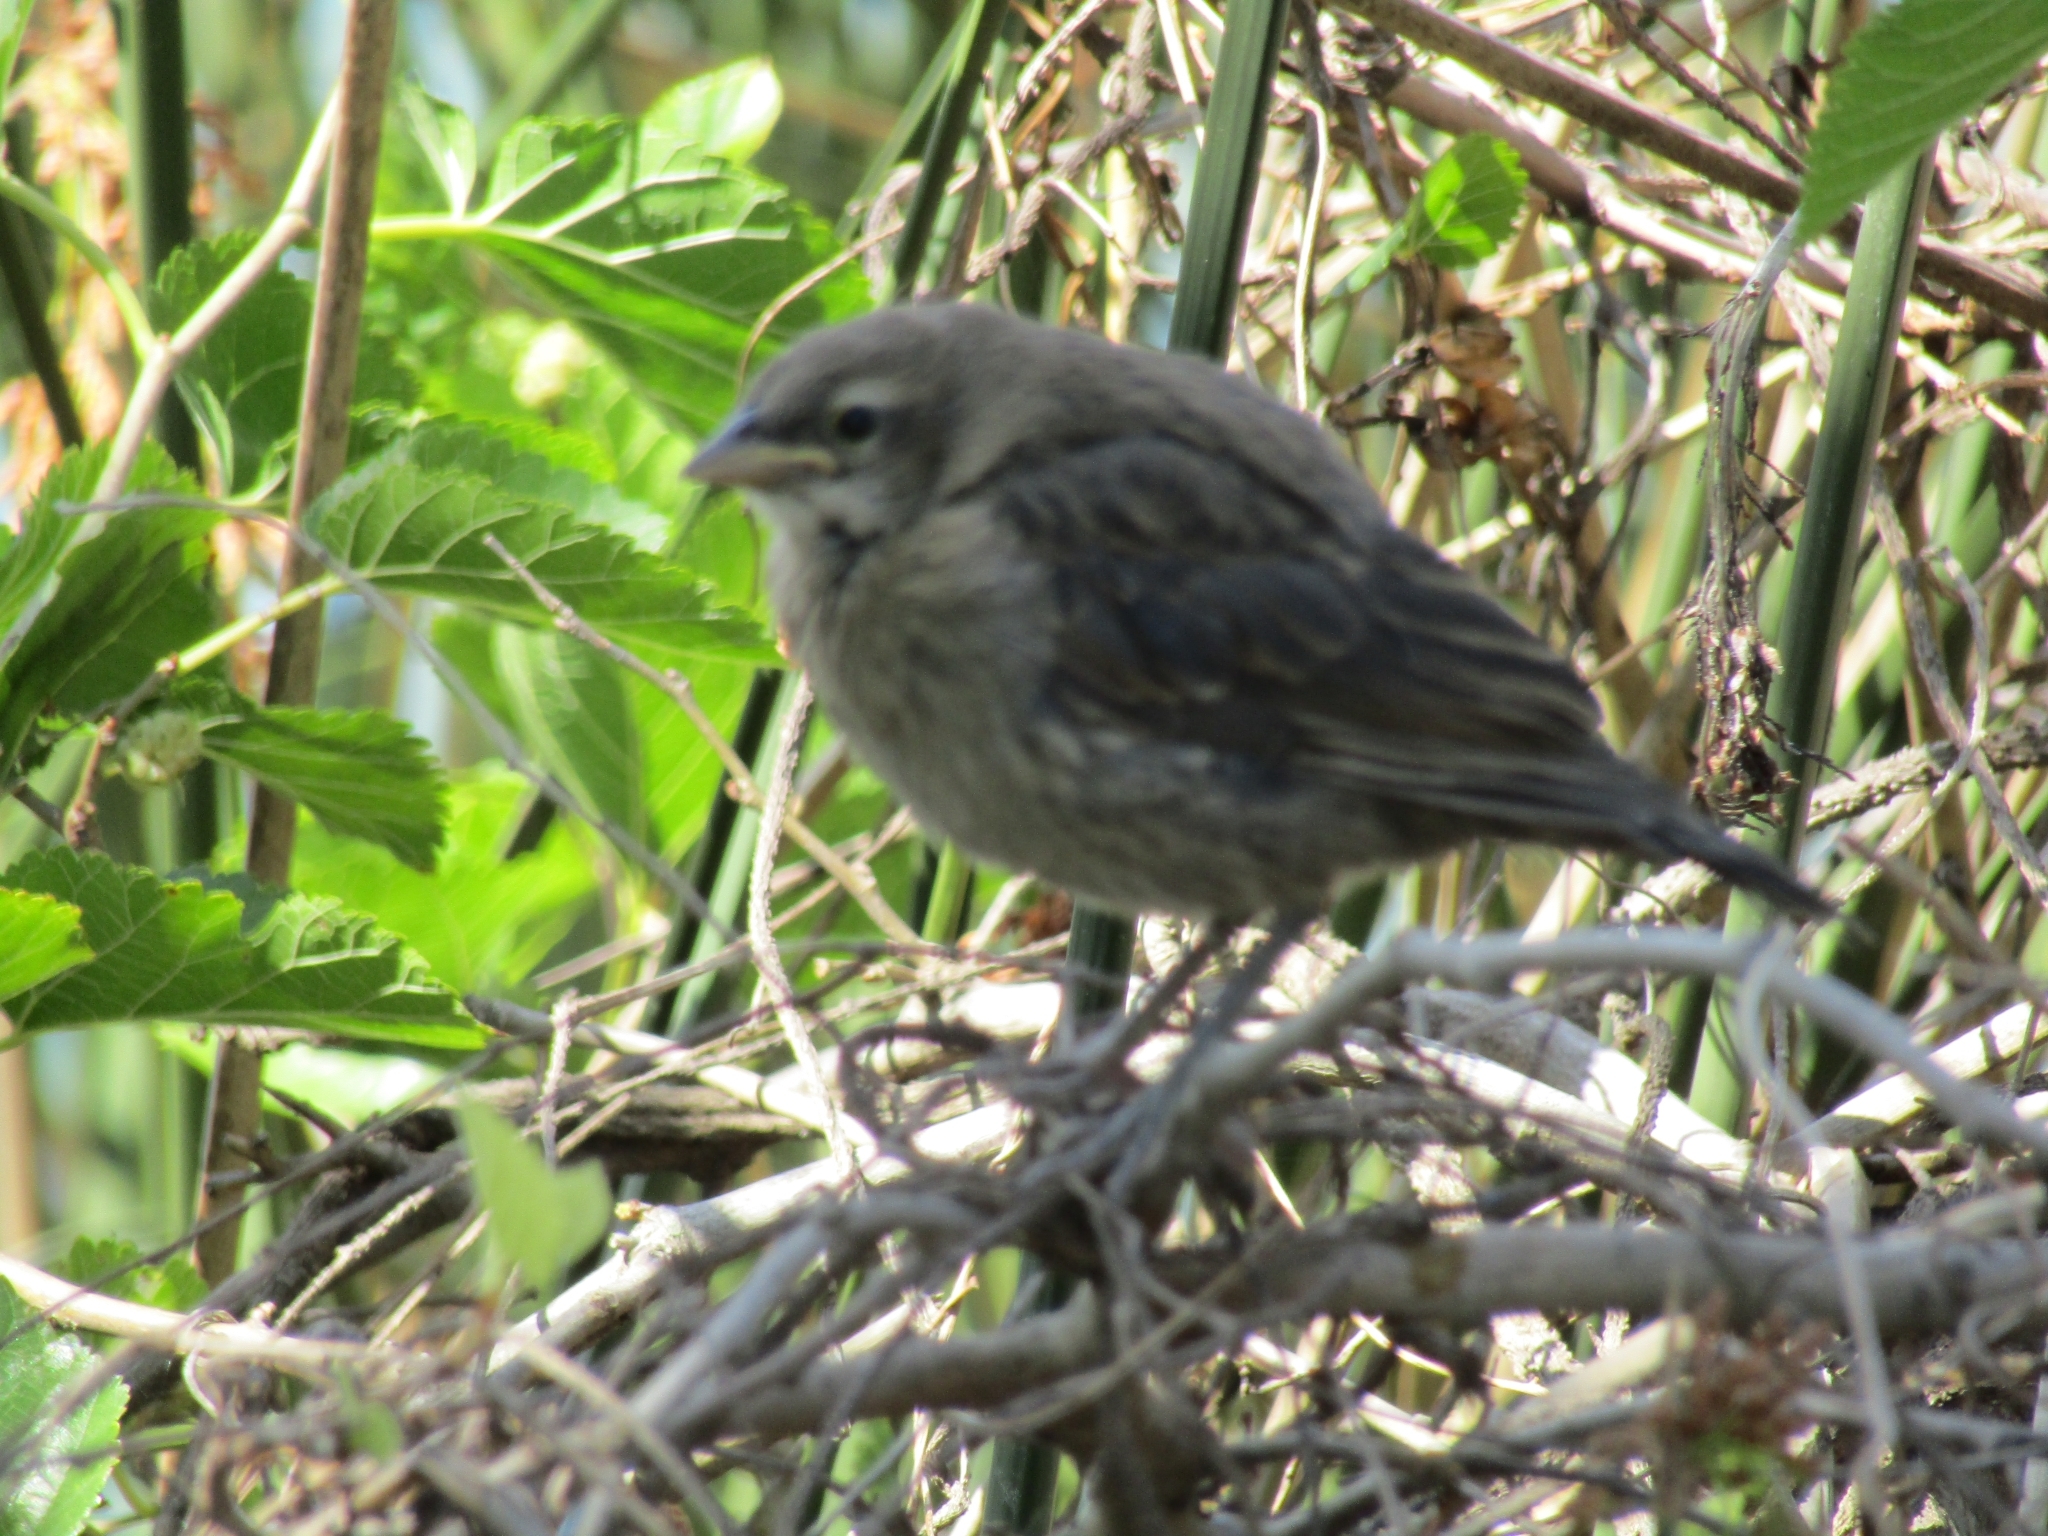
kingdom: Animalia
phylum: Chordata
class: Aves
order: Passeriformes
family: Icteridae
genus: Molothrus
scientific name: Molothrus bonariensis
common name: Shiny cowbird
